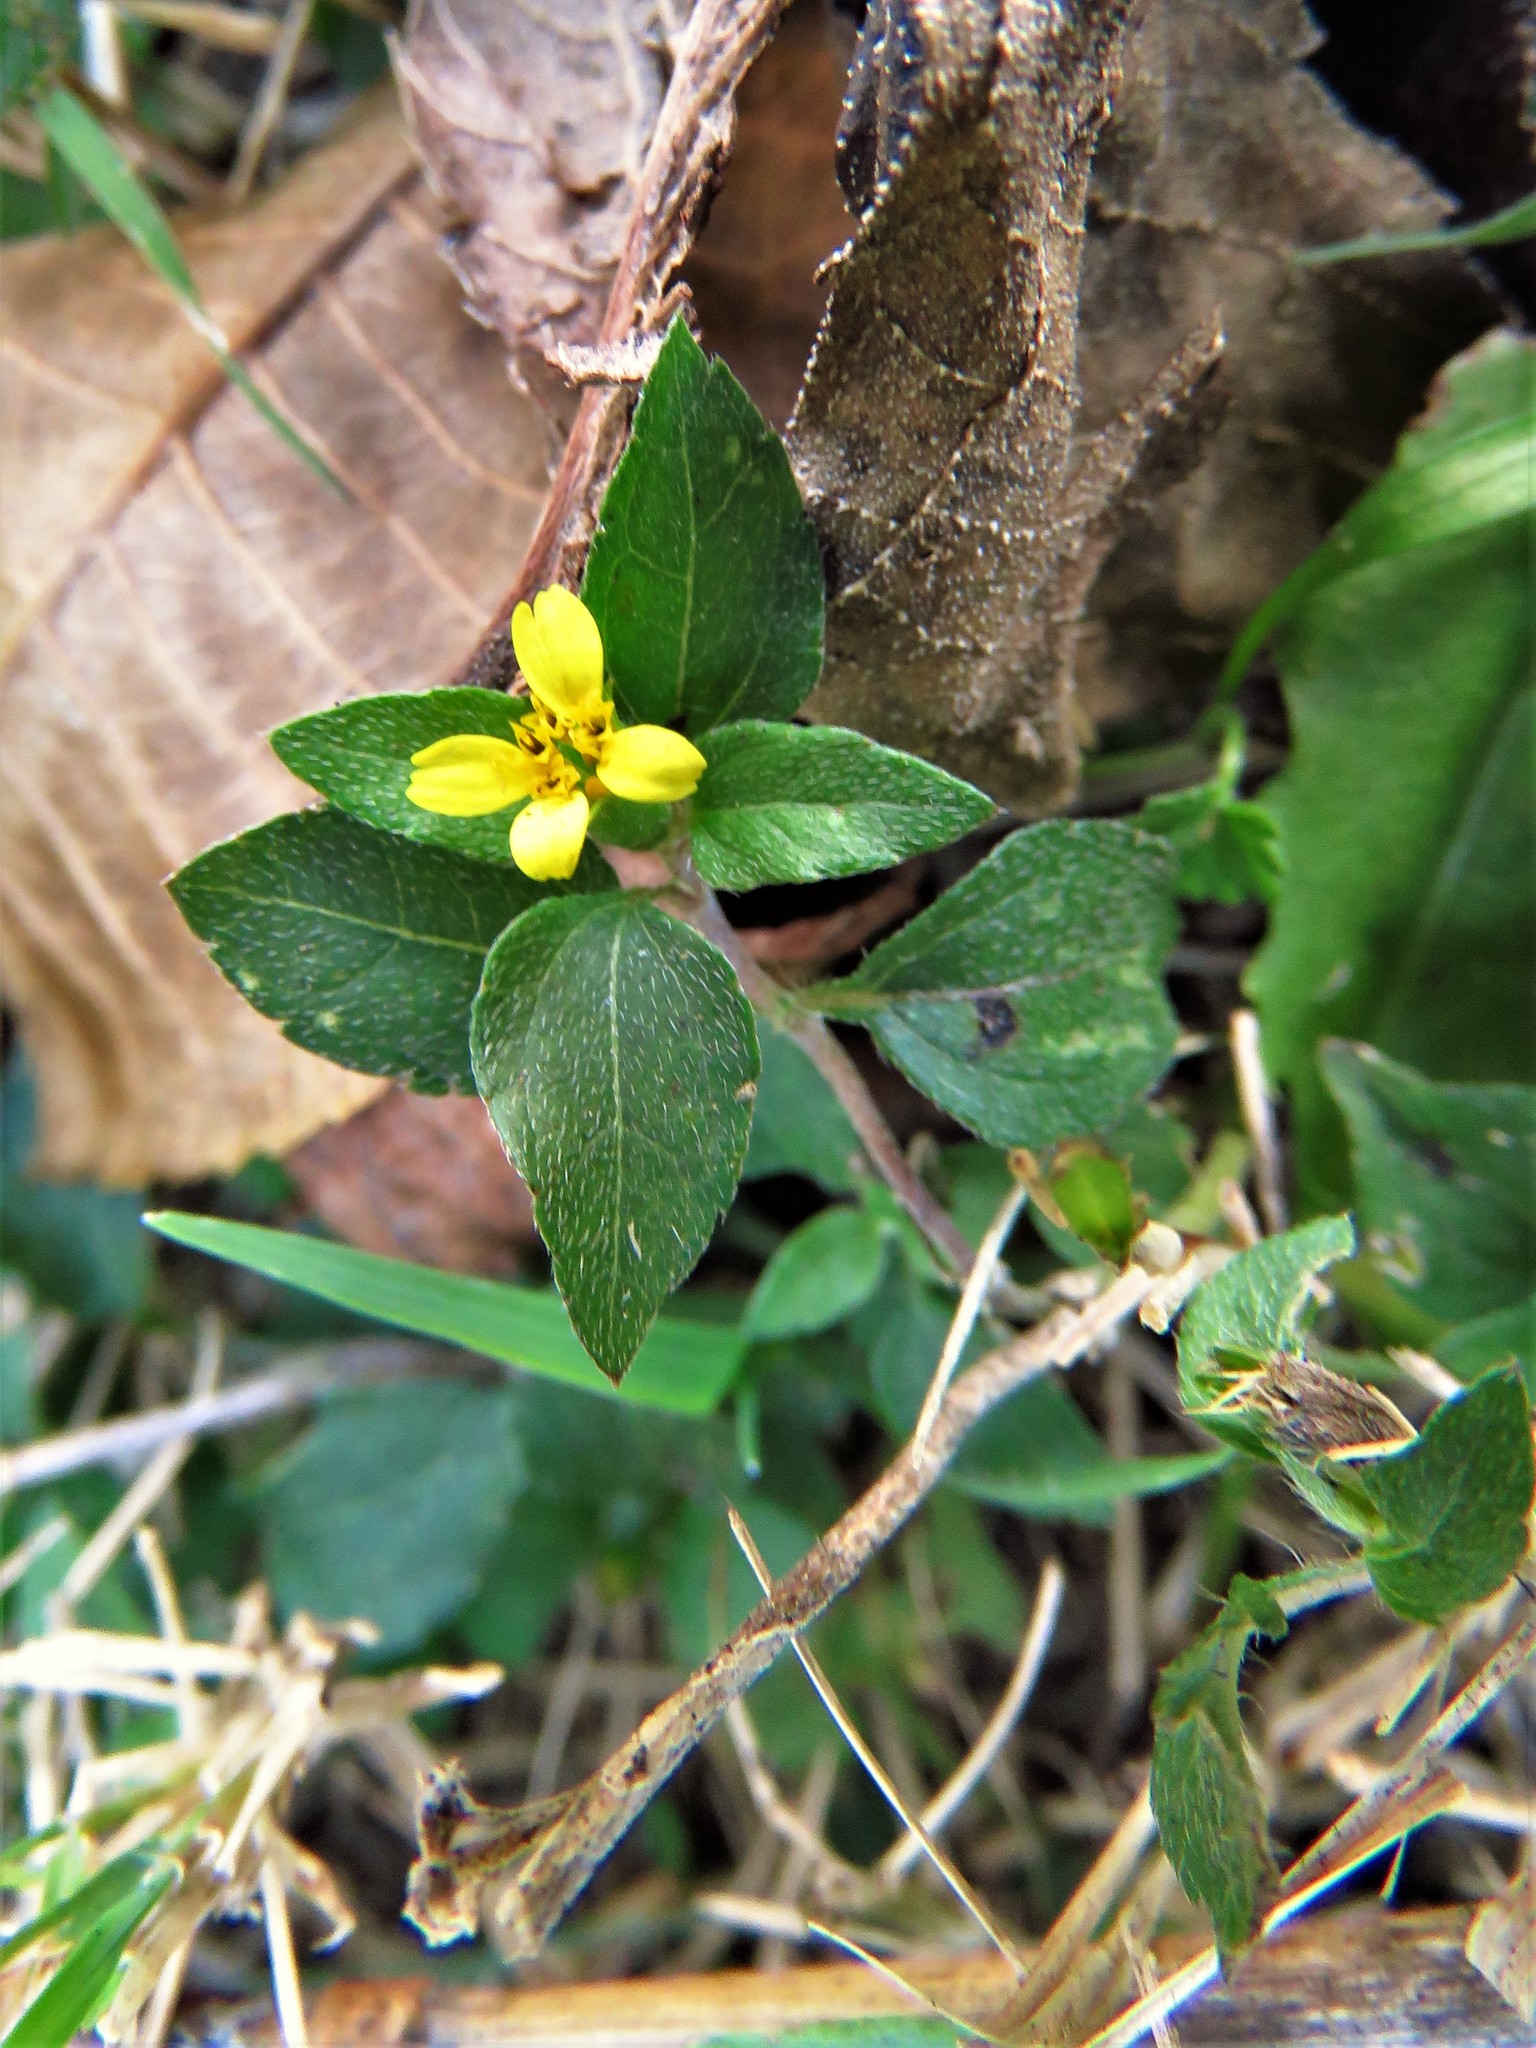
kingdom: Plantae
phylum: Tracheophyta
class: Magnoliopsida
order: Asterales
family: Asteraceae
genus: Calyptocarpus
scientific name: Calyptocarpus vialis
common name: Straggler daisy
